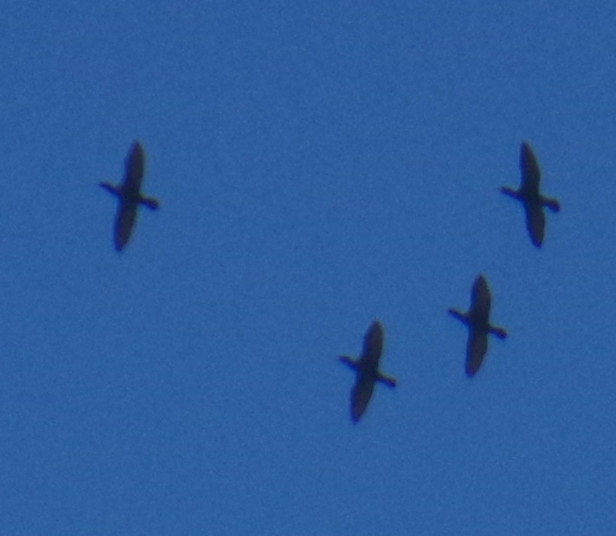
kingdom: Animalia
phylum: Chordata
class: Aves
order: Suliformes
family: Phalacrocoracidae
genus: Phalacrocorax
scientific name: Phalacrocorax auritus
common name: Double-crested cormorant
